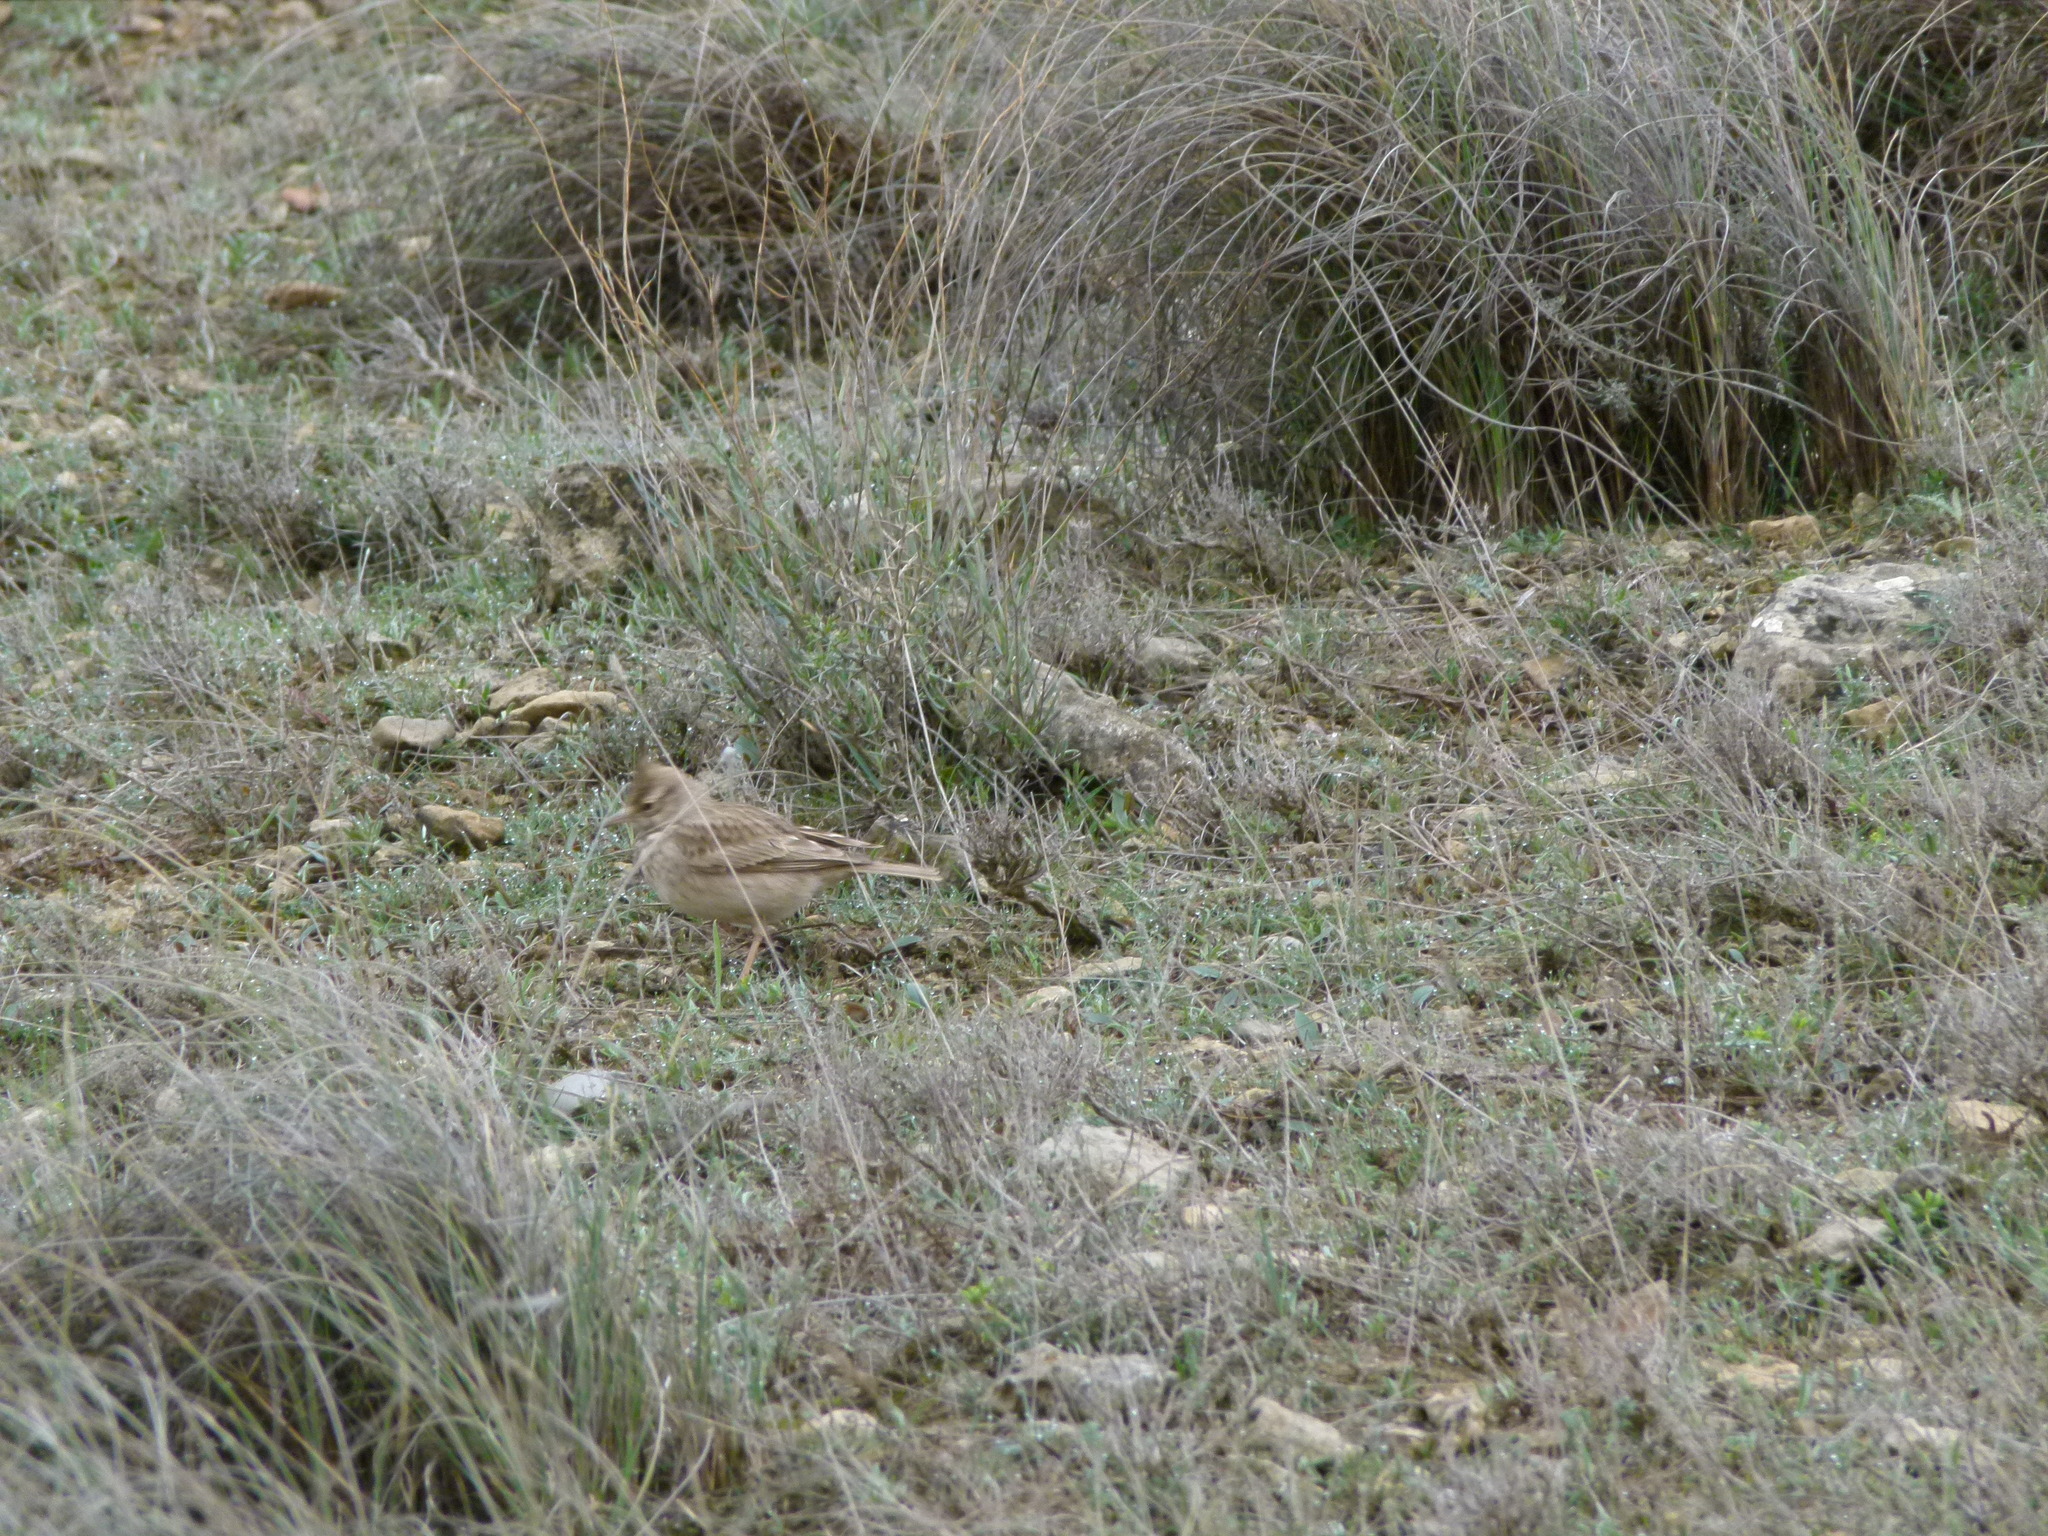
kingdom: Animalia
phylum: Chordata
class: Aves
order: Passeriformes
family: Alaudidae
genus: Galerida
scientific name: Galerida cristata
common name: Crested lark
